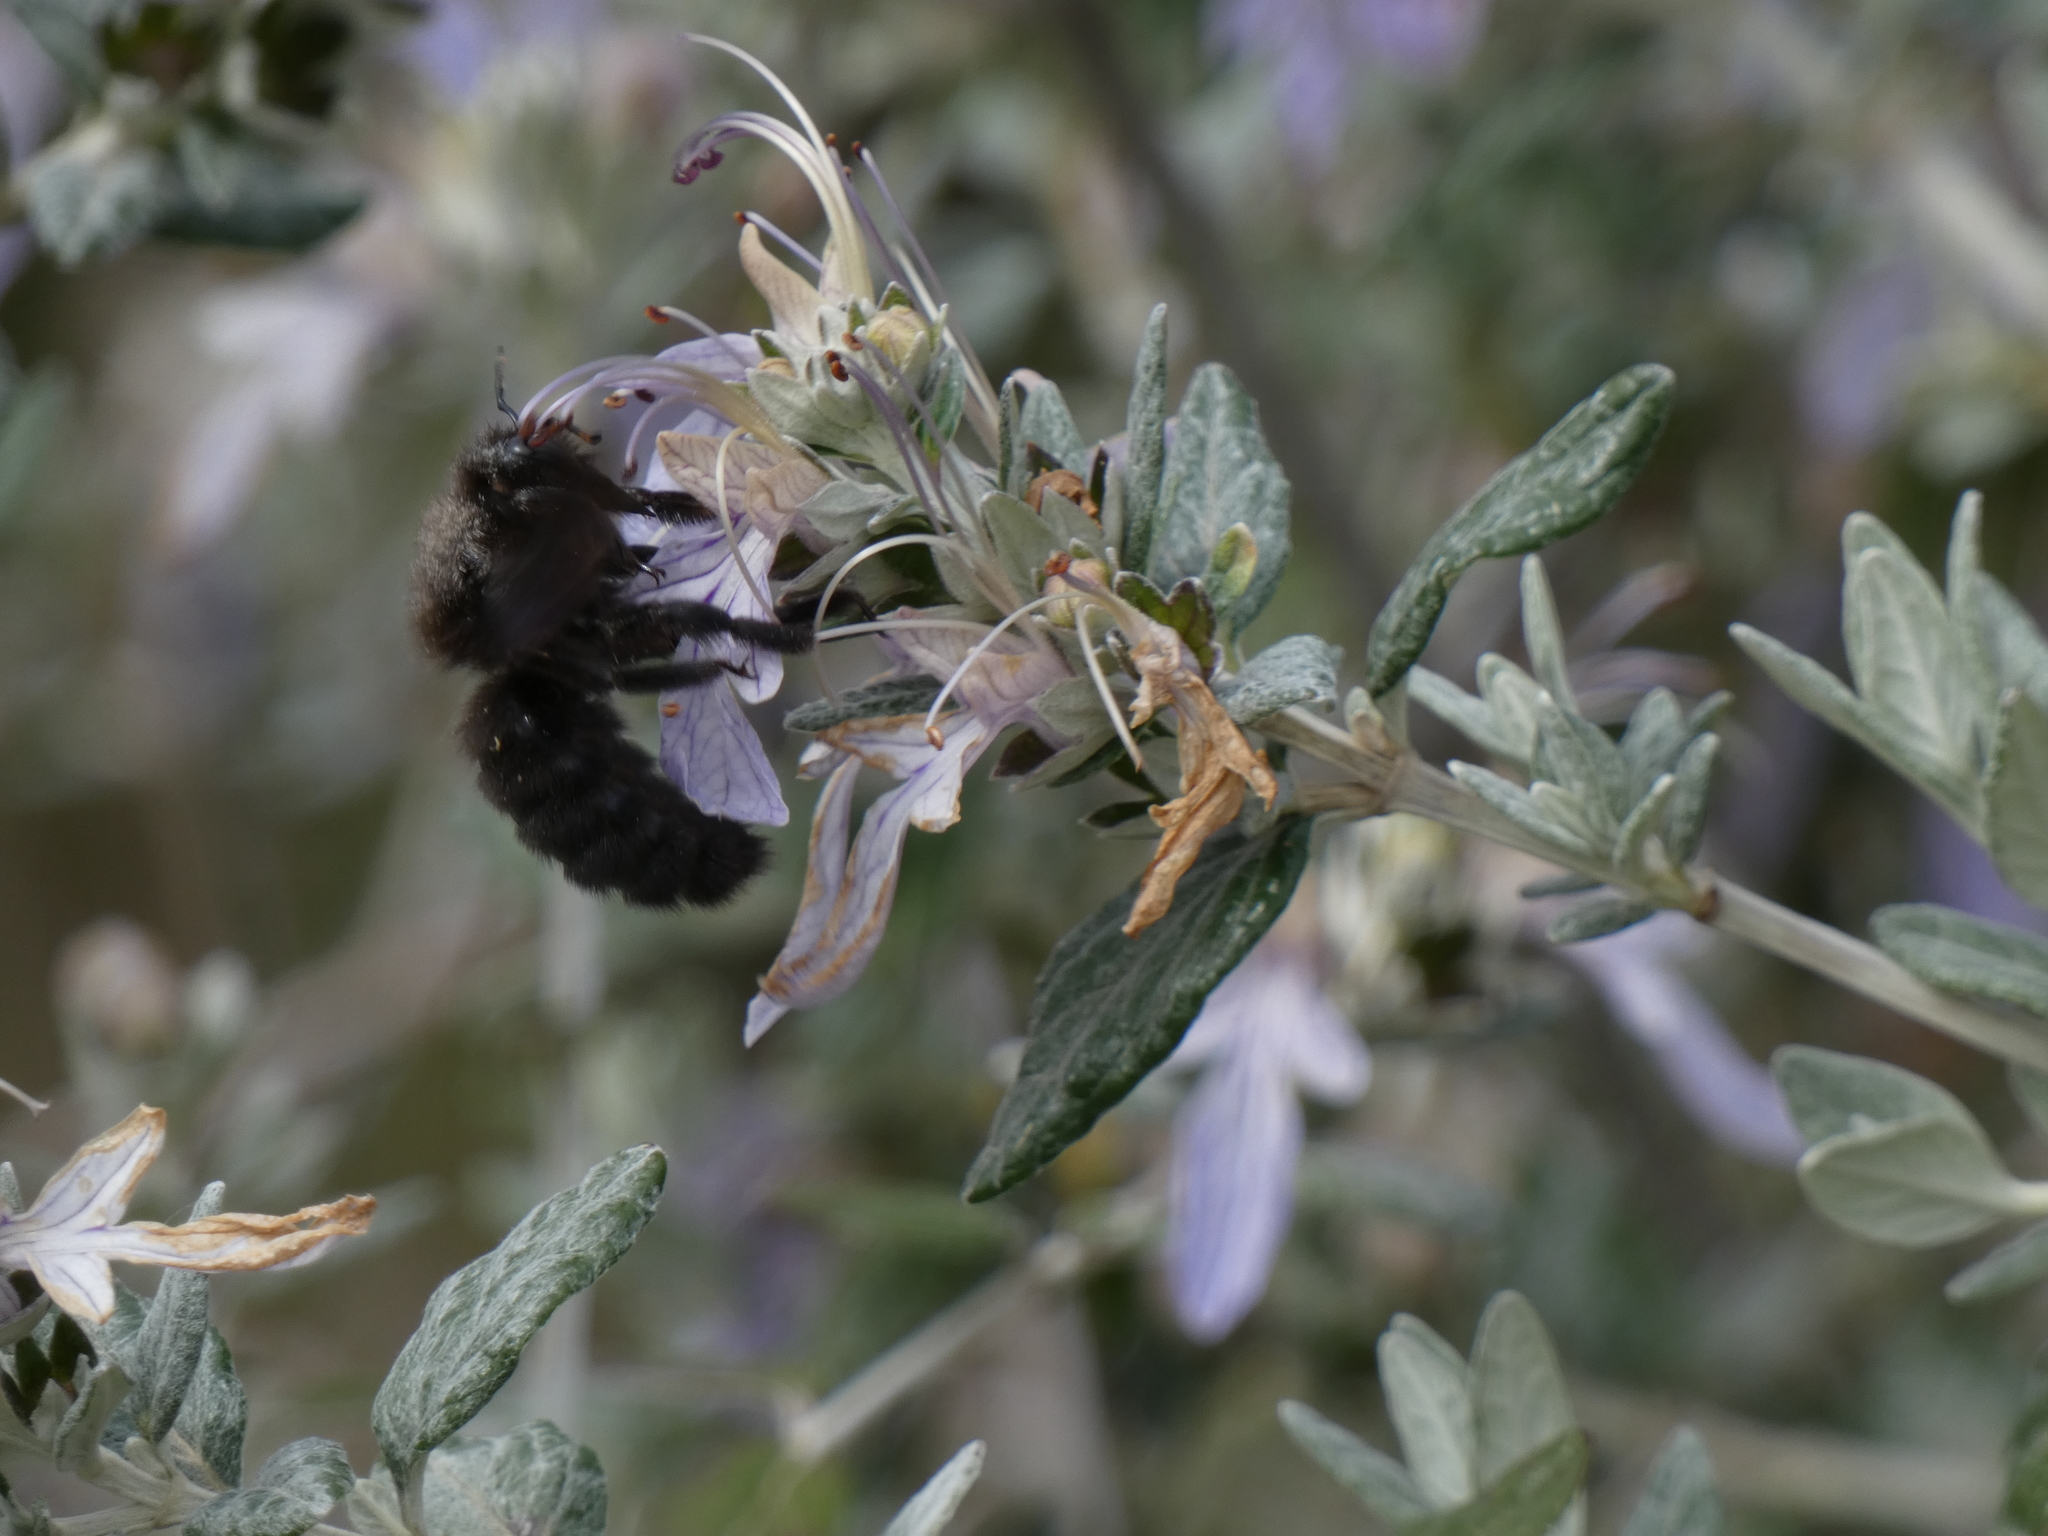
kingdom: Animalia
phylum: Arthropoda
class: Insecta
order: Hymenoptera
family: Apidae
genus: Xylocopa
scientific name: Xylocopa violacea
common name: Violet carpenter bee
